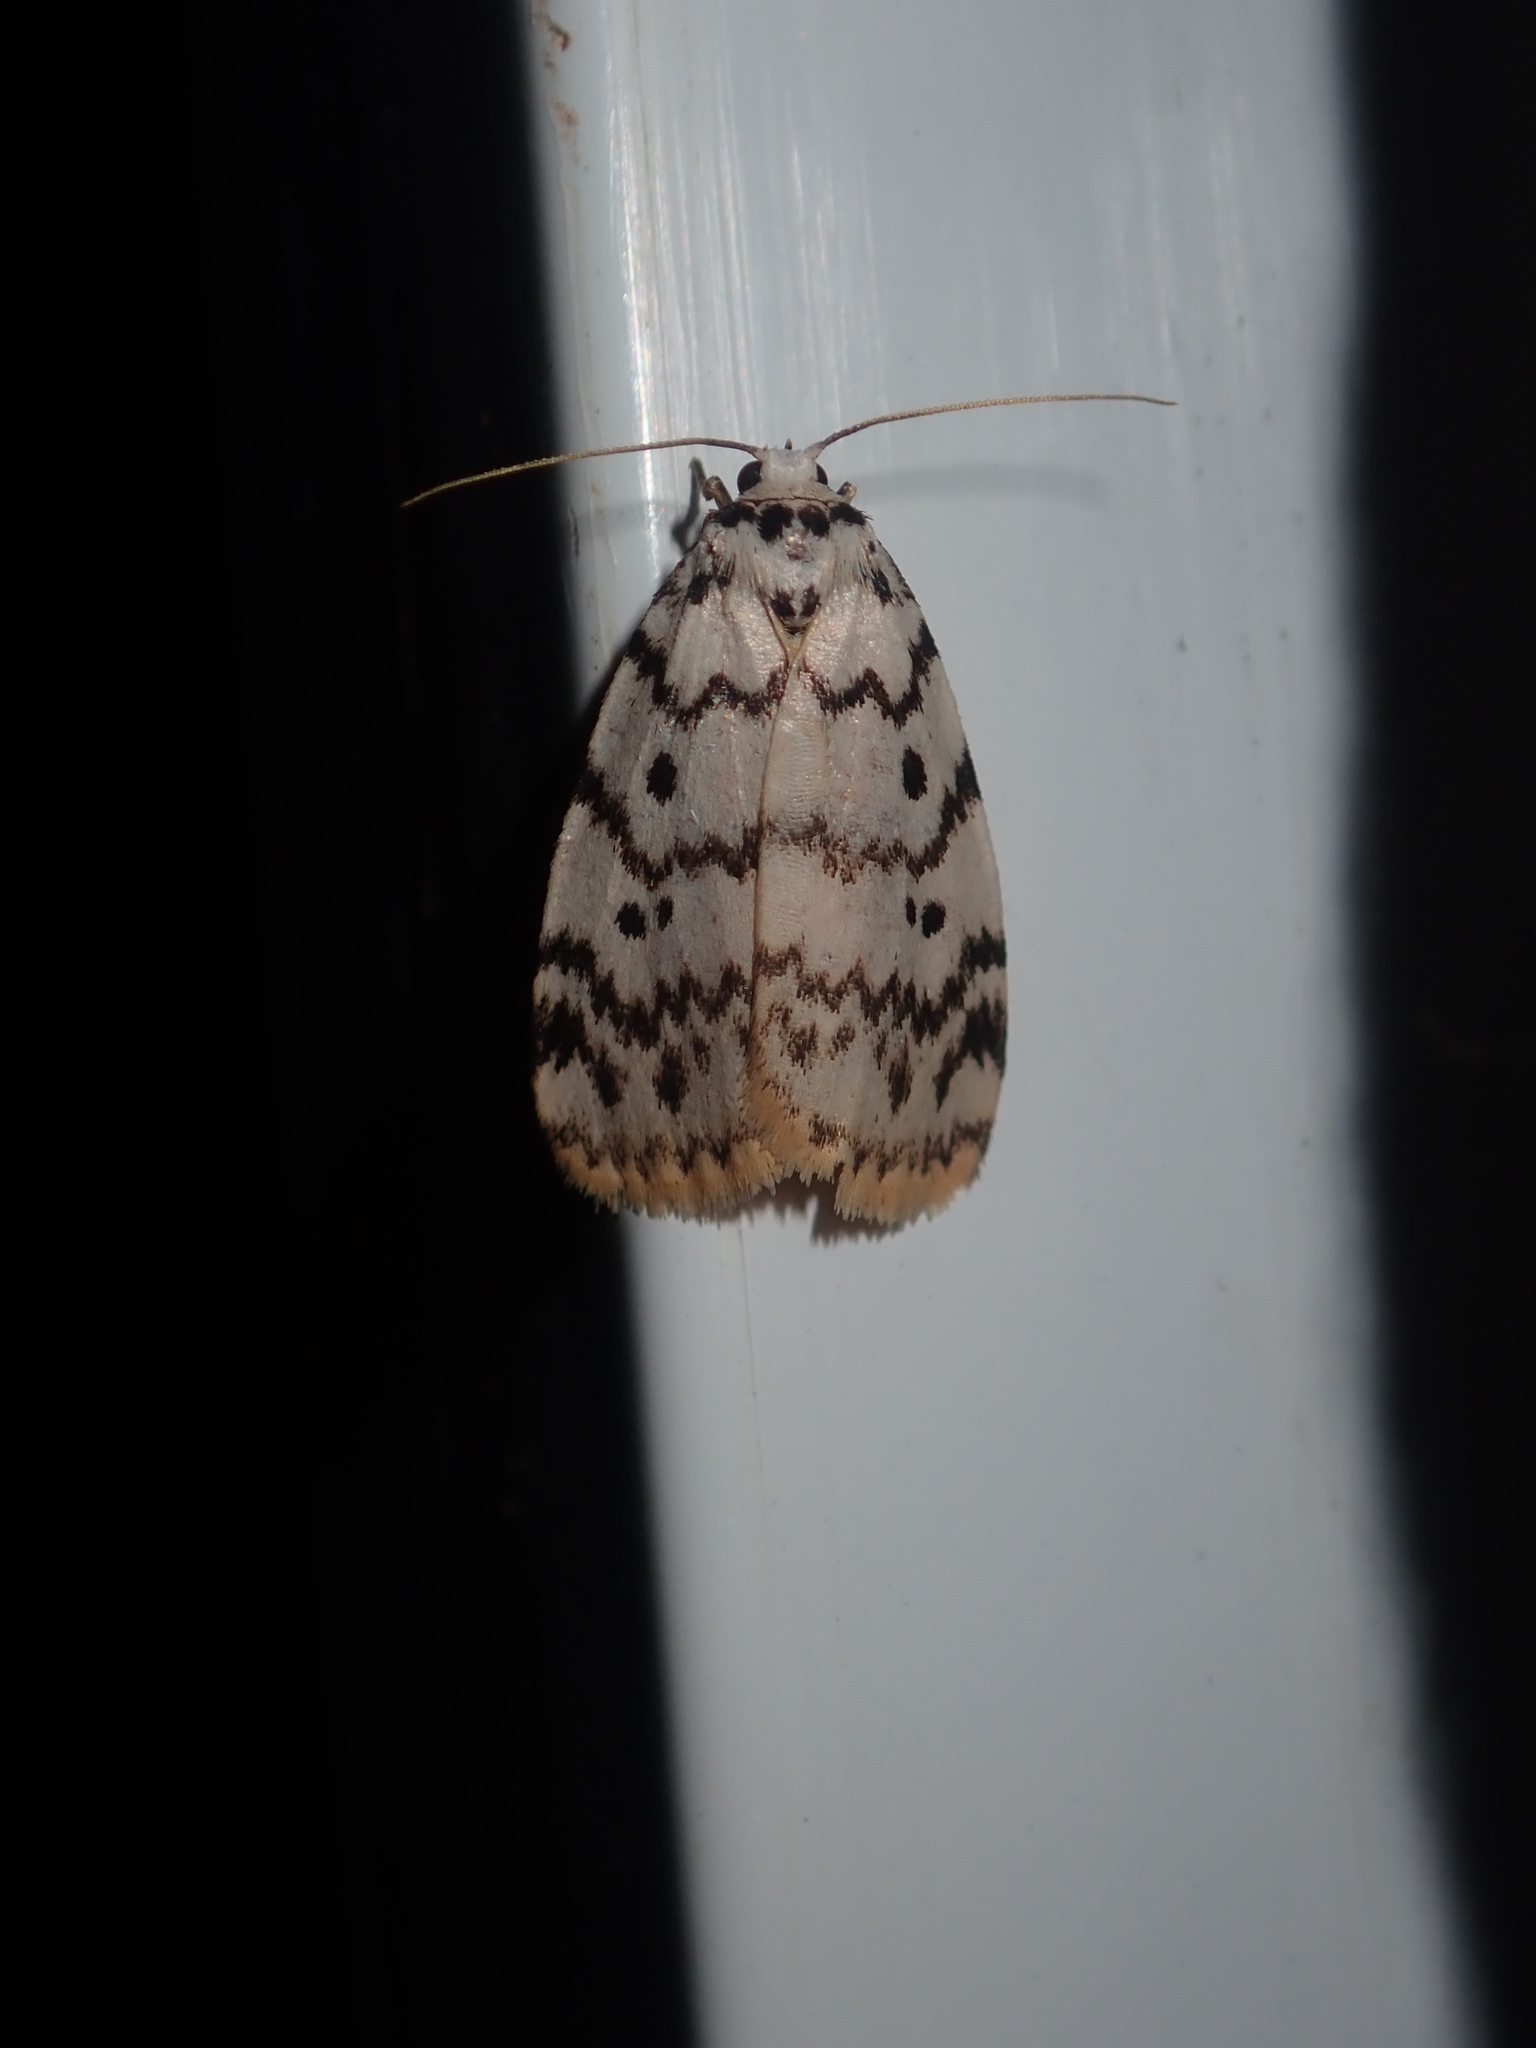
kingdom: Animalia
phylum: Arthropoda
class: Insecta
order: Lepidoptera
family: Erebidae
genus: Hectobrocha
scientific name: Hectobrocha pentacyma
